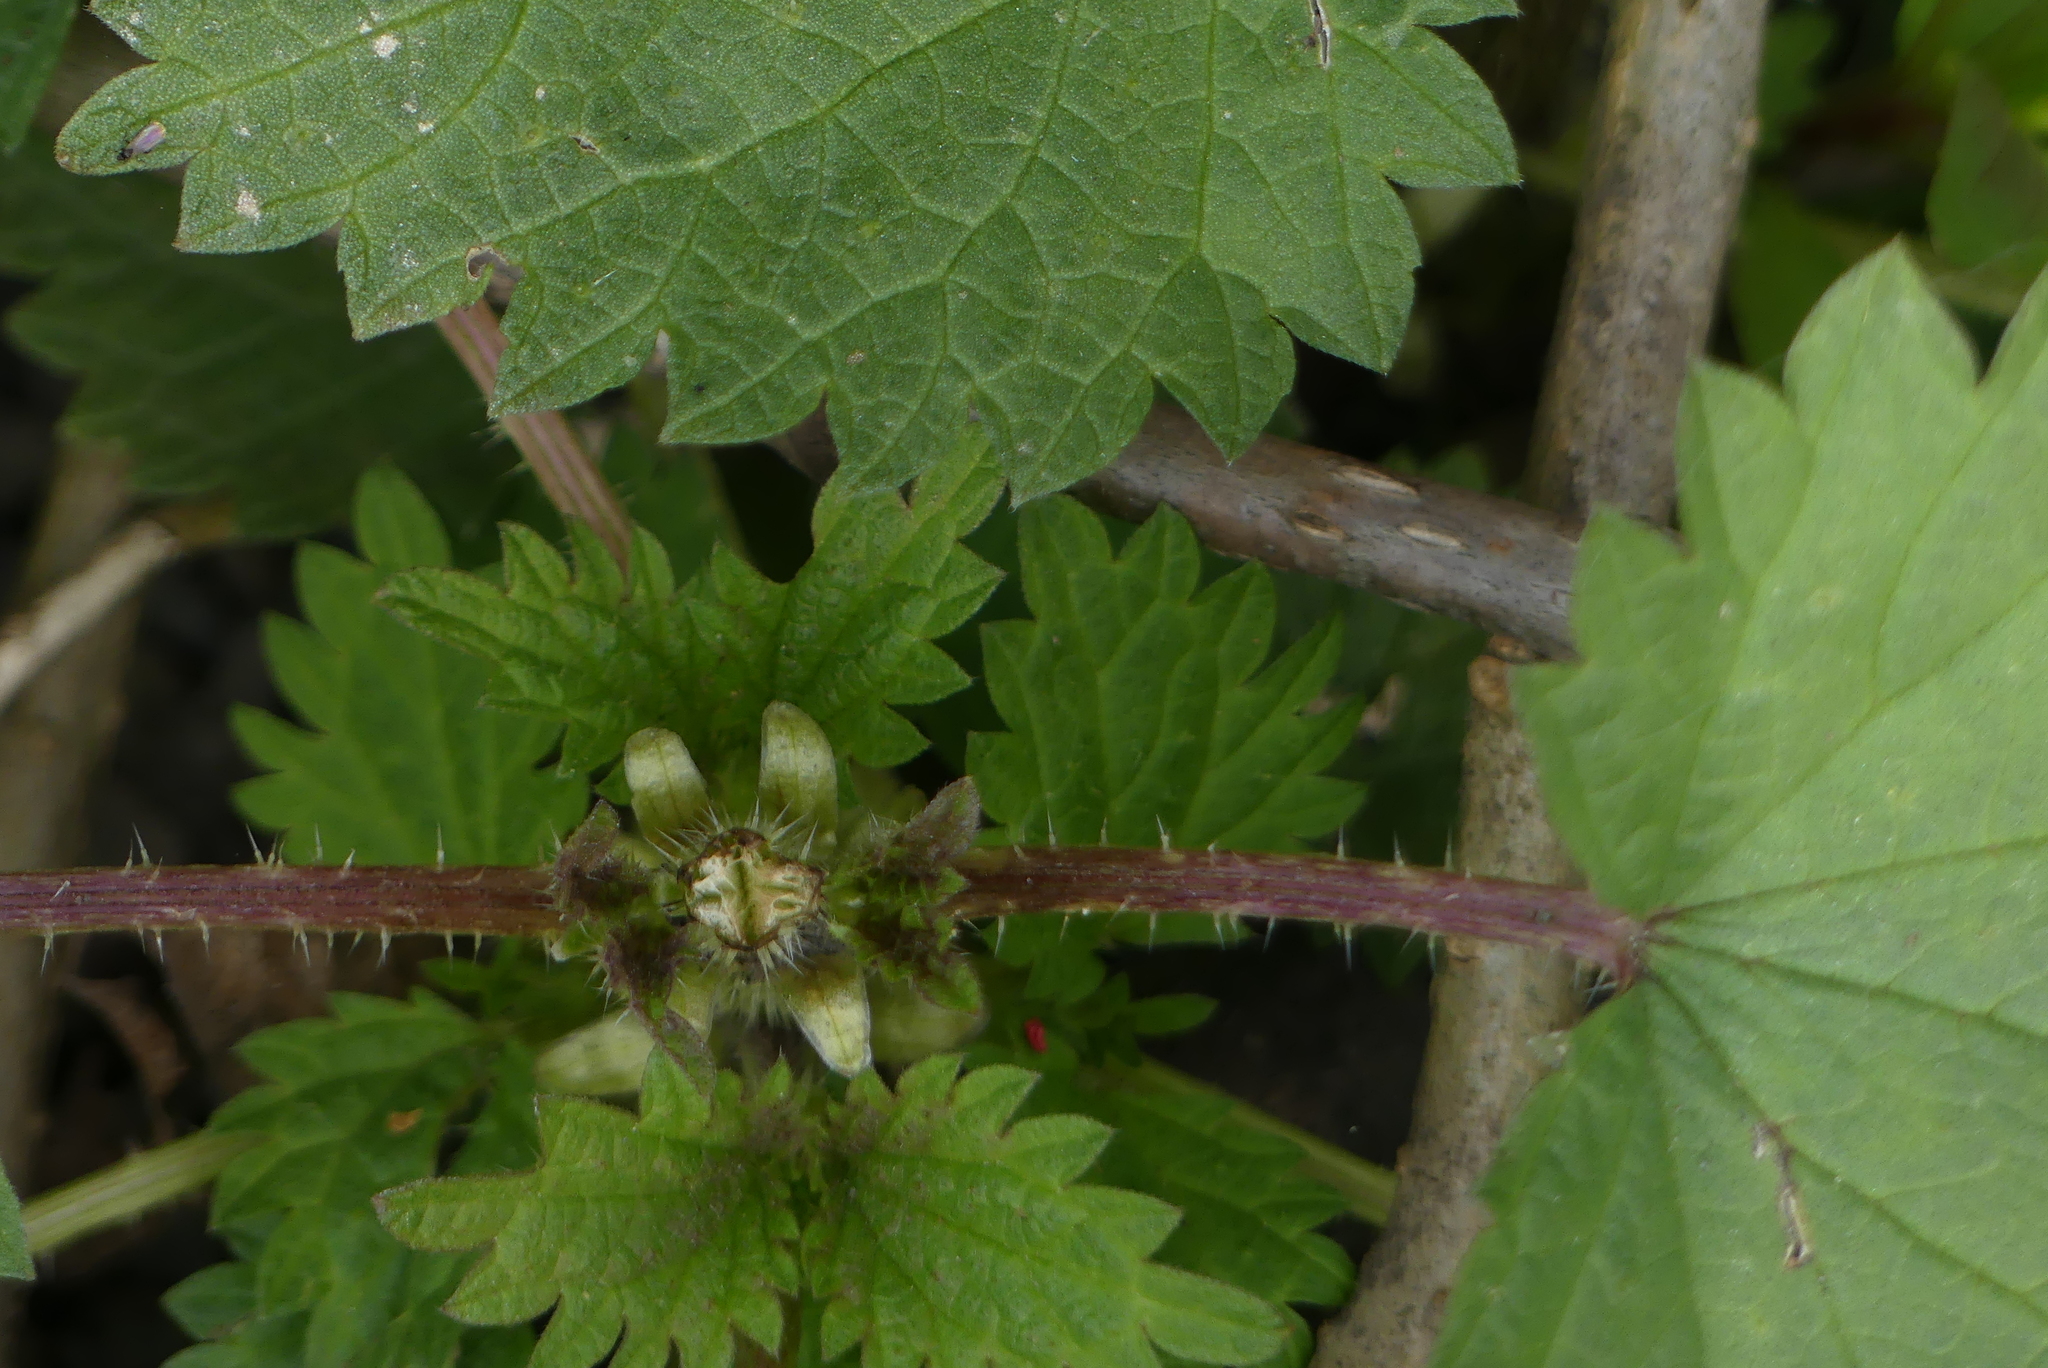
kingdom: Plantae
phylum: Tracheophyta
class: Magnoliopsida
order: Rosales
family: Urticaceae
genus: Urtica
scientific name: Urtica dioica
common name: Common nettle
